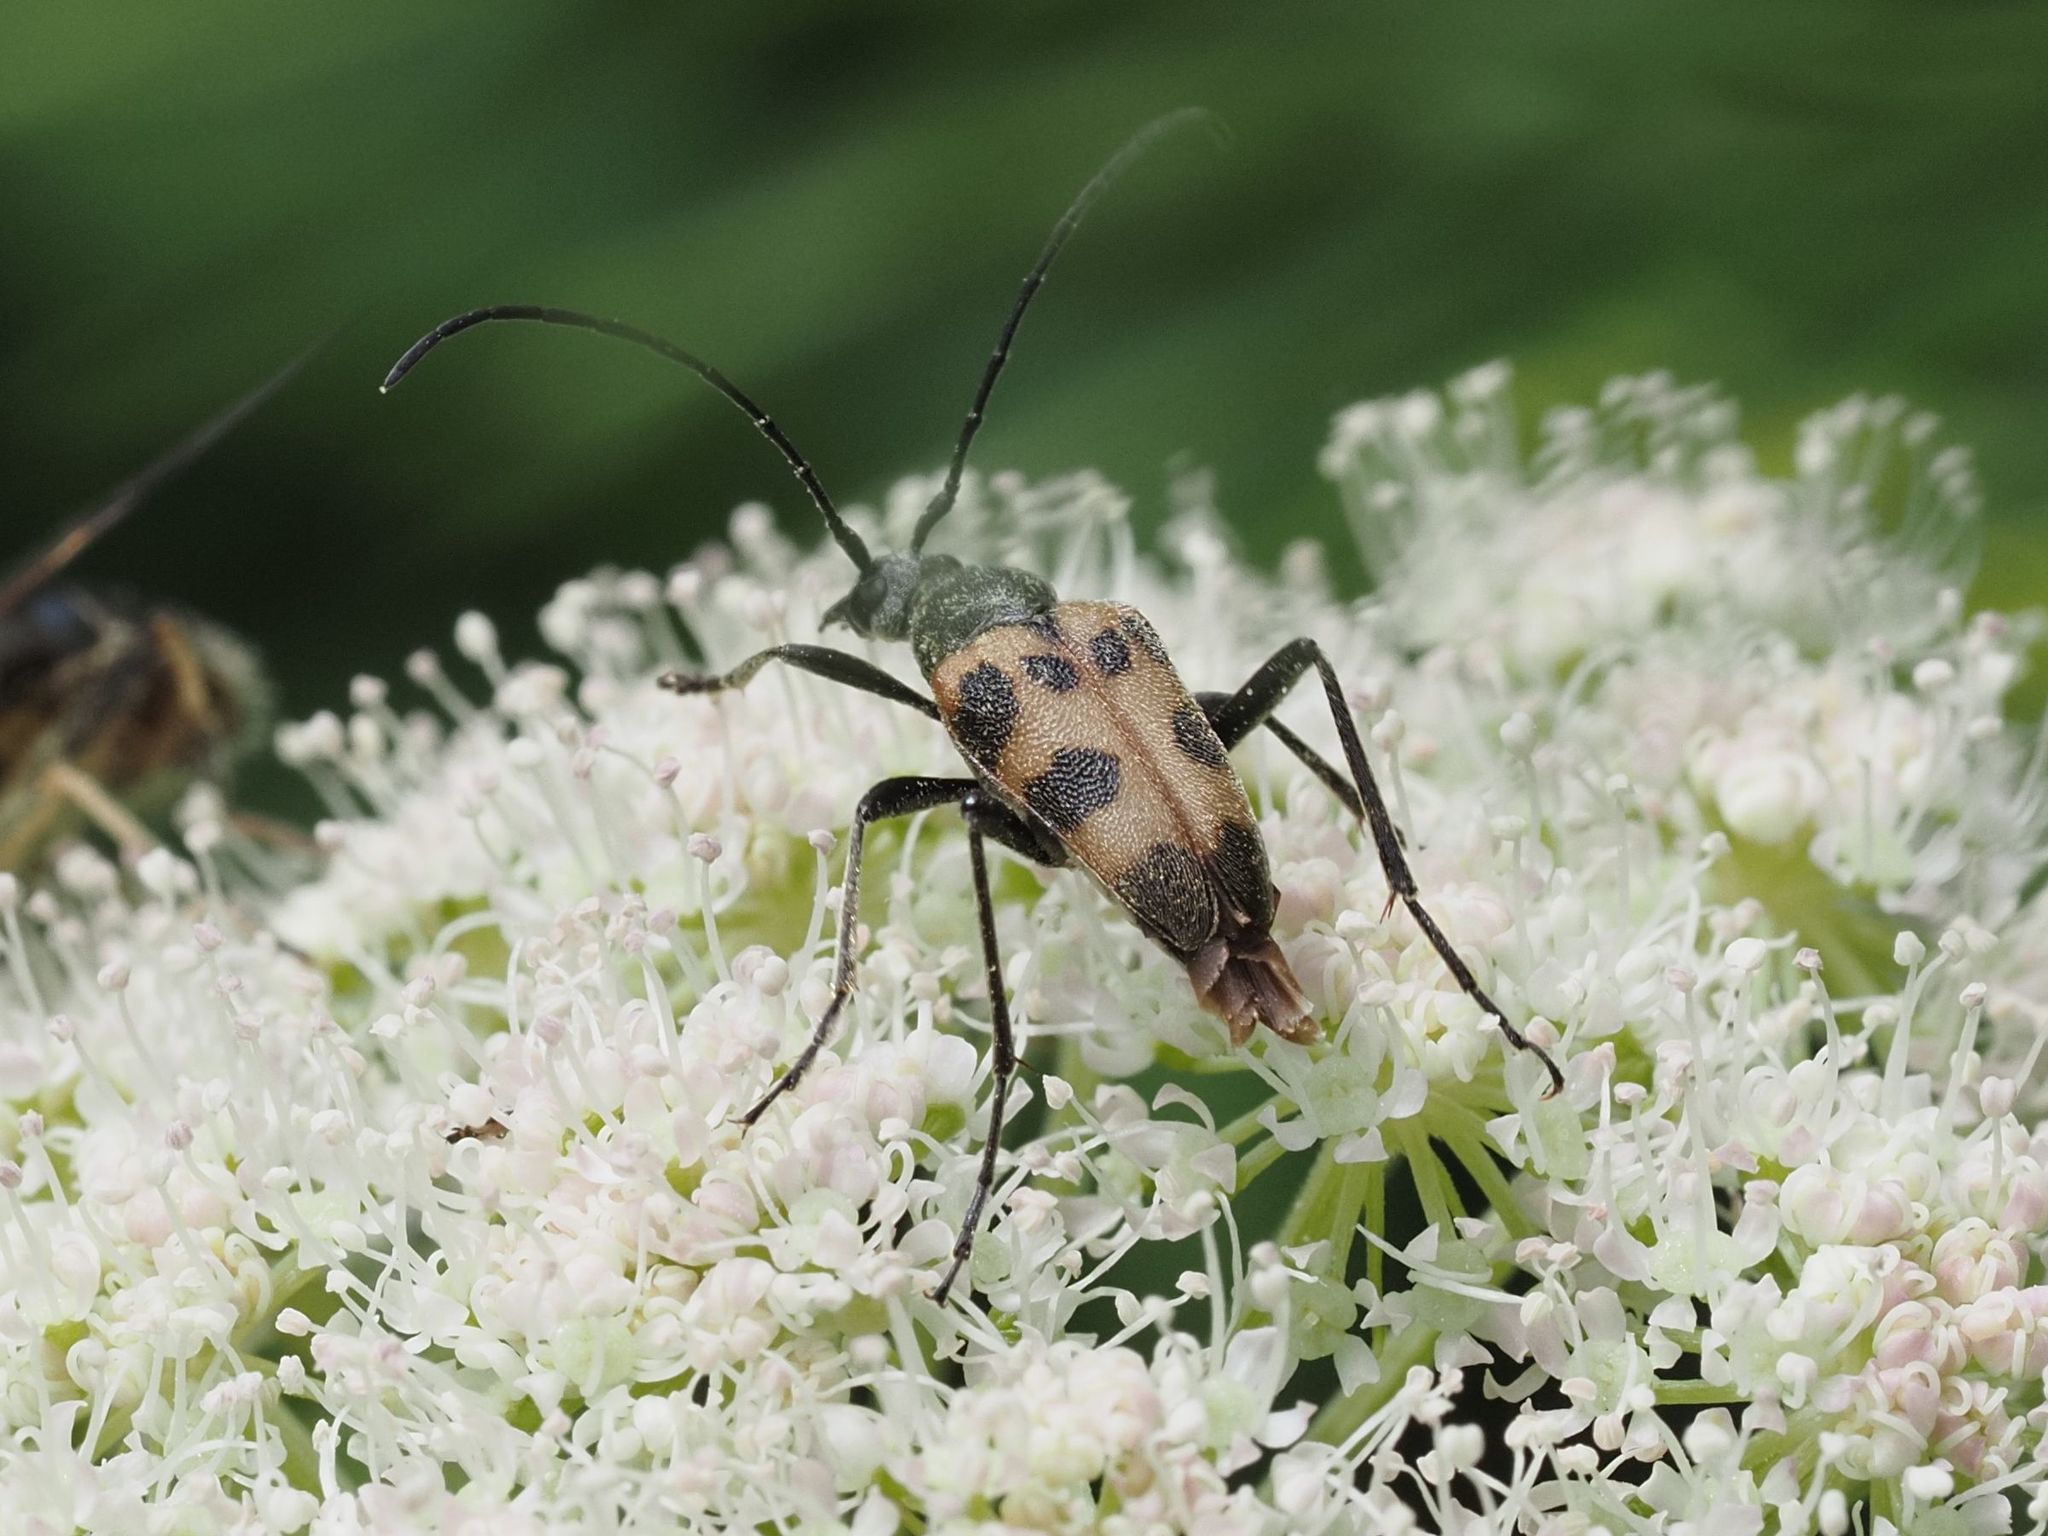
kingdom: Animalia
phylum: Arthropoda
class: Insecta
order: Coleoptera
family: Cerambycidae
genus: Pachytodes
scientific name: Pachytodes cerambyciformis
